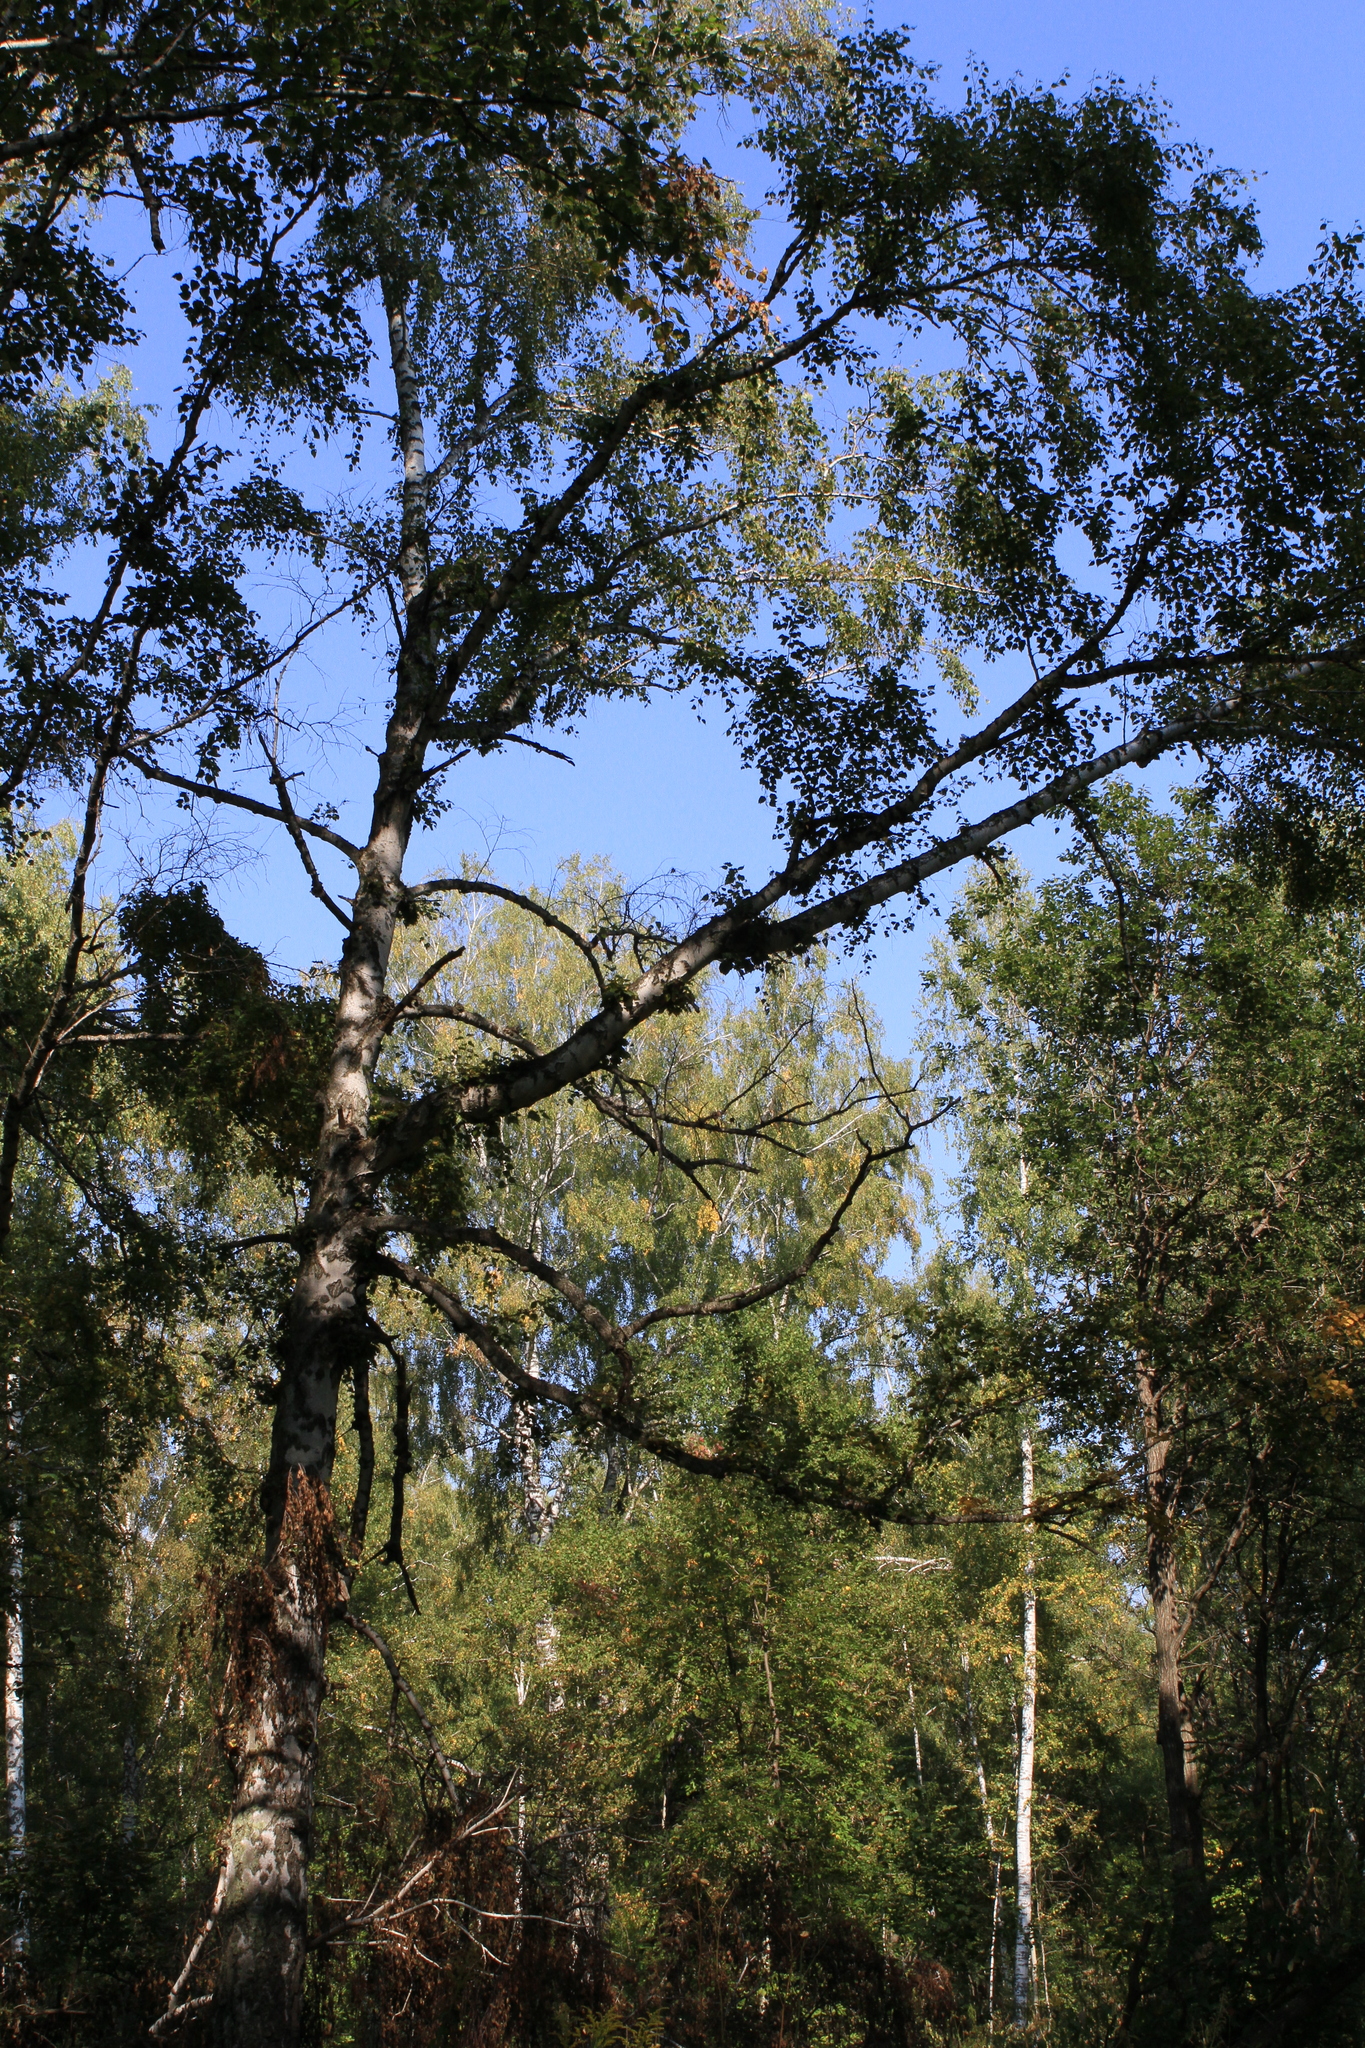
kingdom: Plantae
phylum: Tracheophyta
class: Magnoliopsida
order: Fagales
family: Betulaceae
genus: Betula
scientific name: Betula pendula
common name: Silver birch
